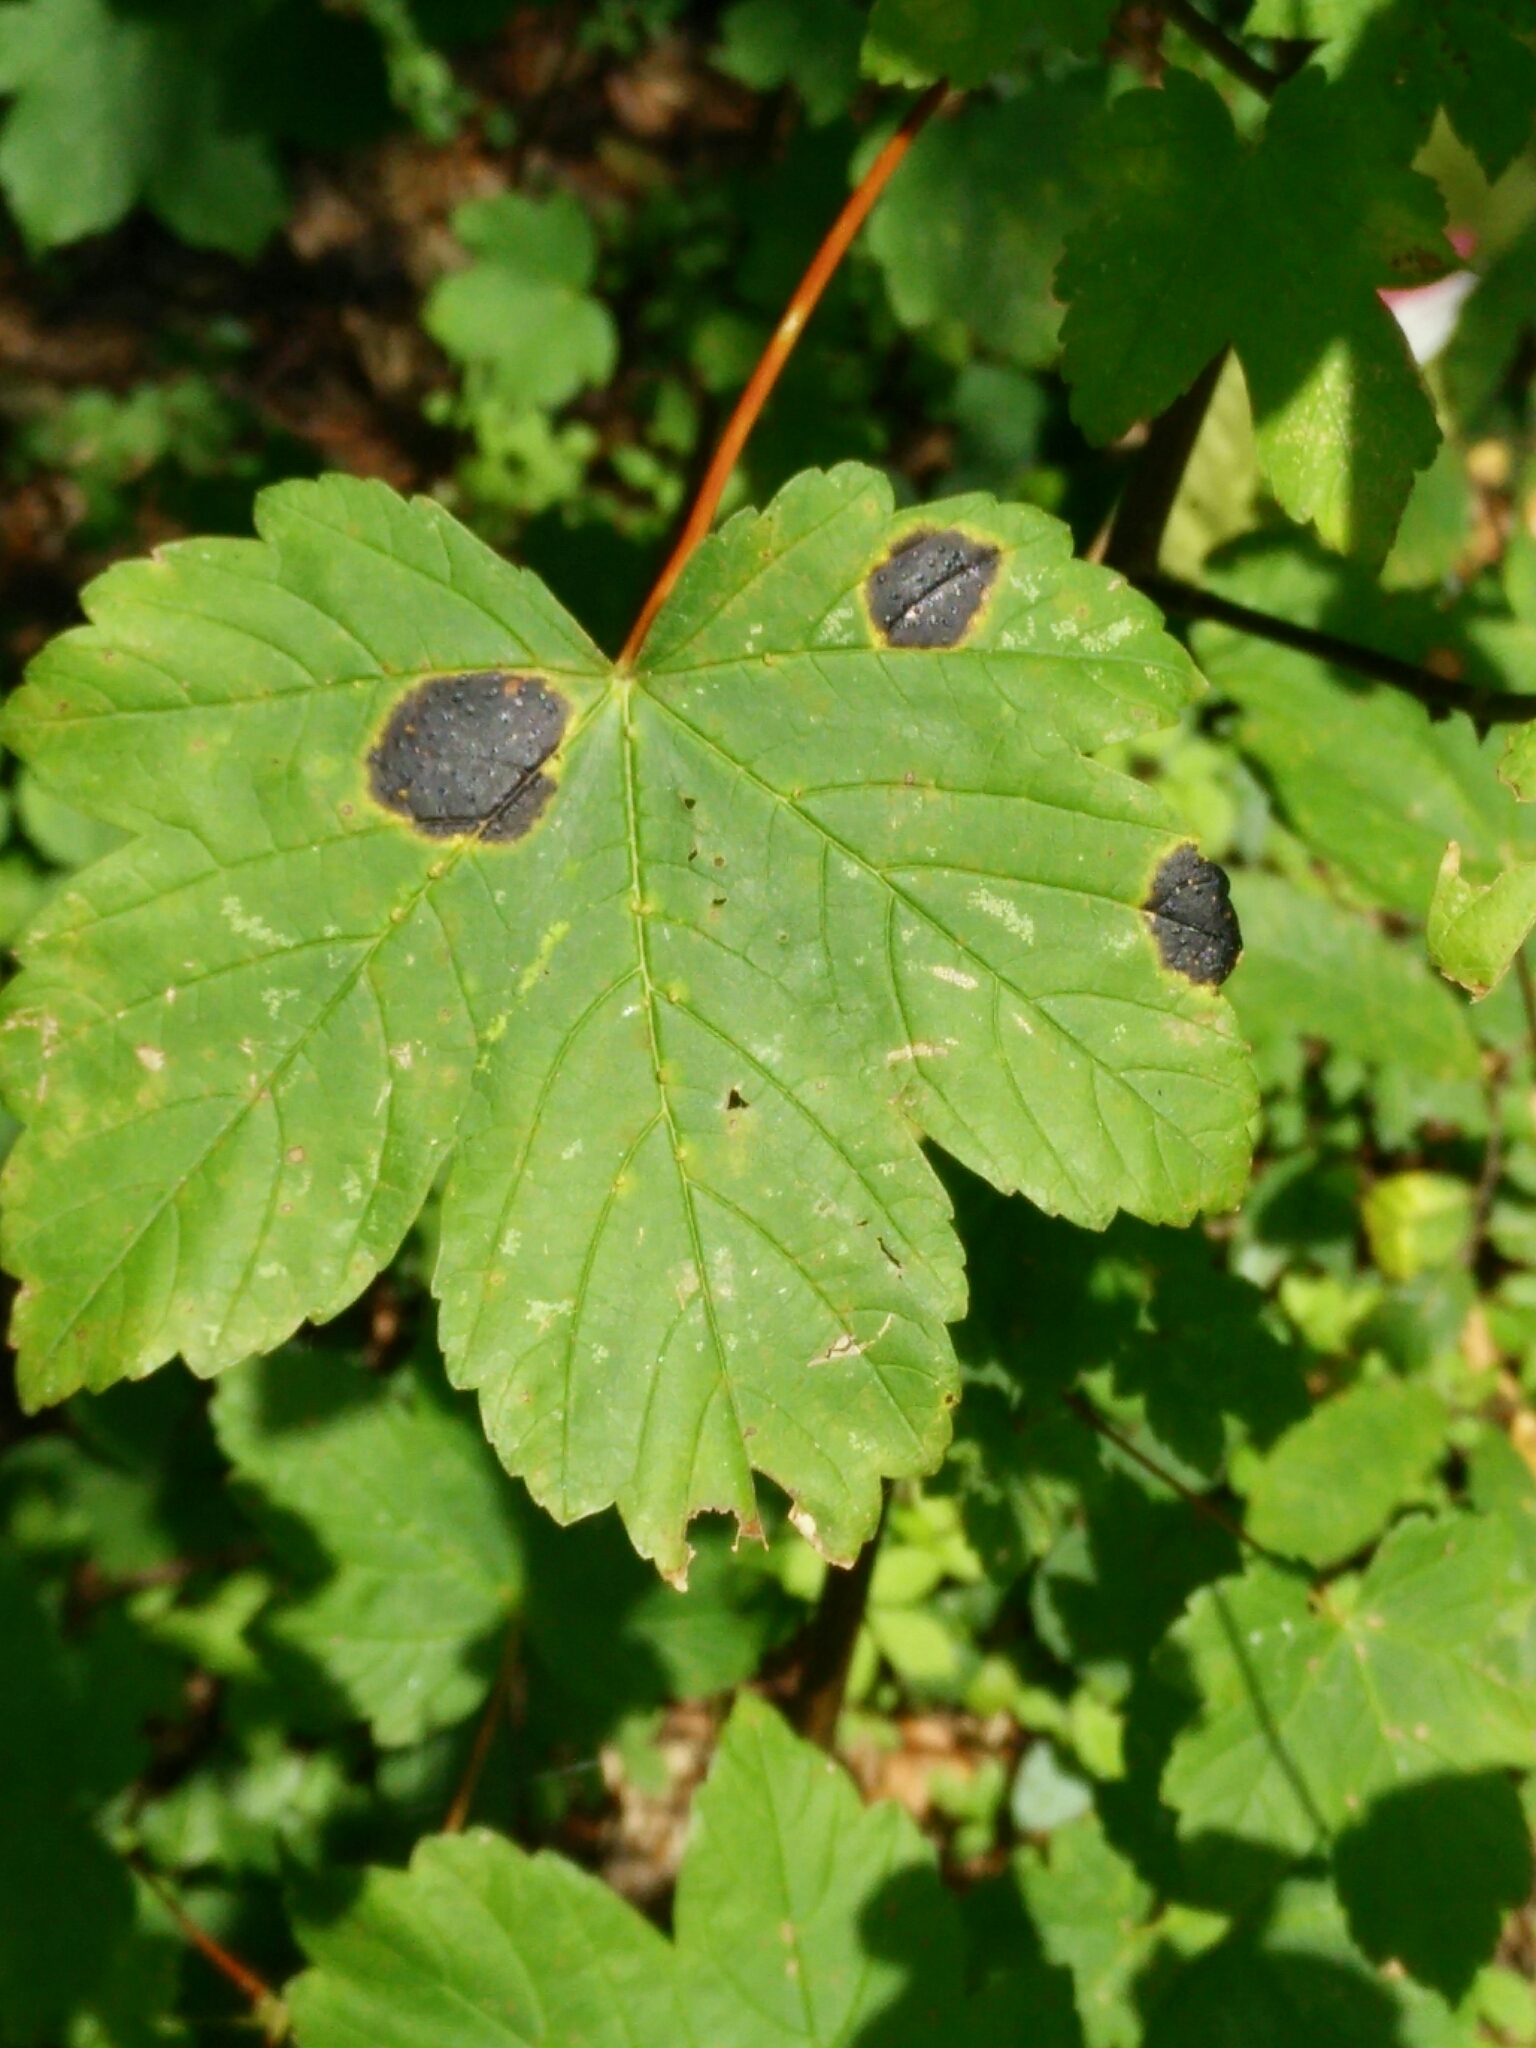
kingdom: Fungi
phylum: Ascomycota
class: Leotiomycetes
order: Rhytismatales
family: Rhytismataceae
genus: Rhytisma
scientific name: Rhytisma acerinum
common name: European tar spot
